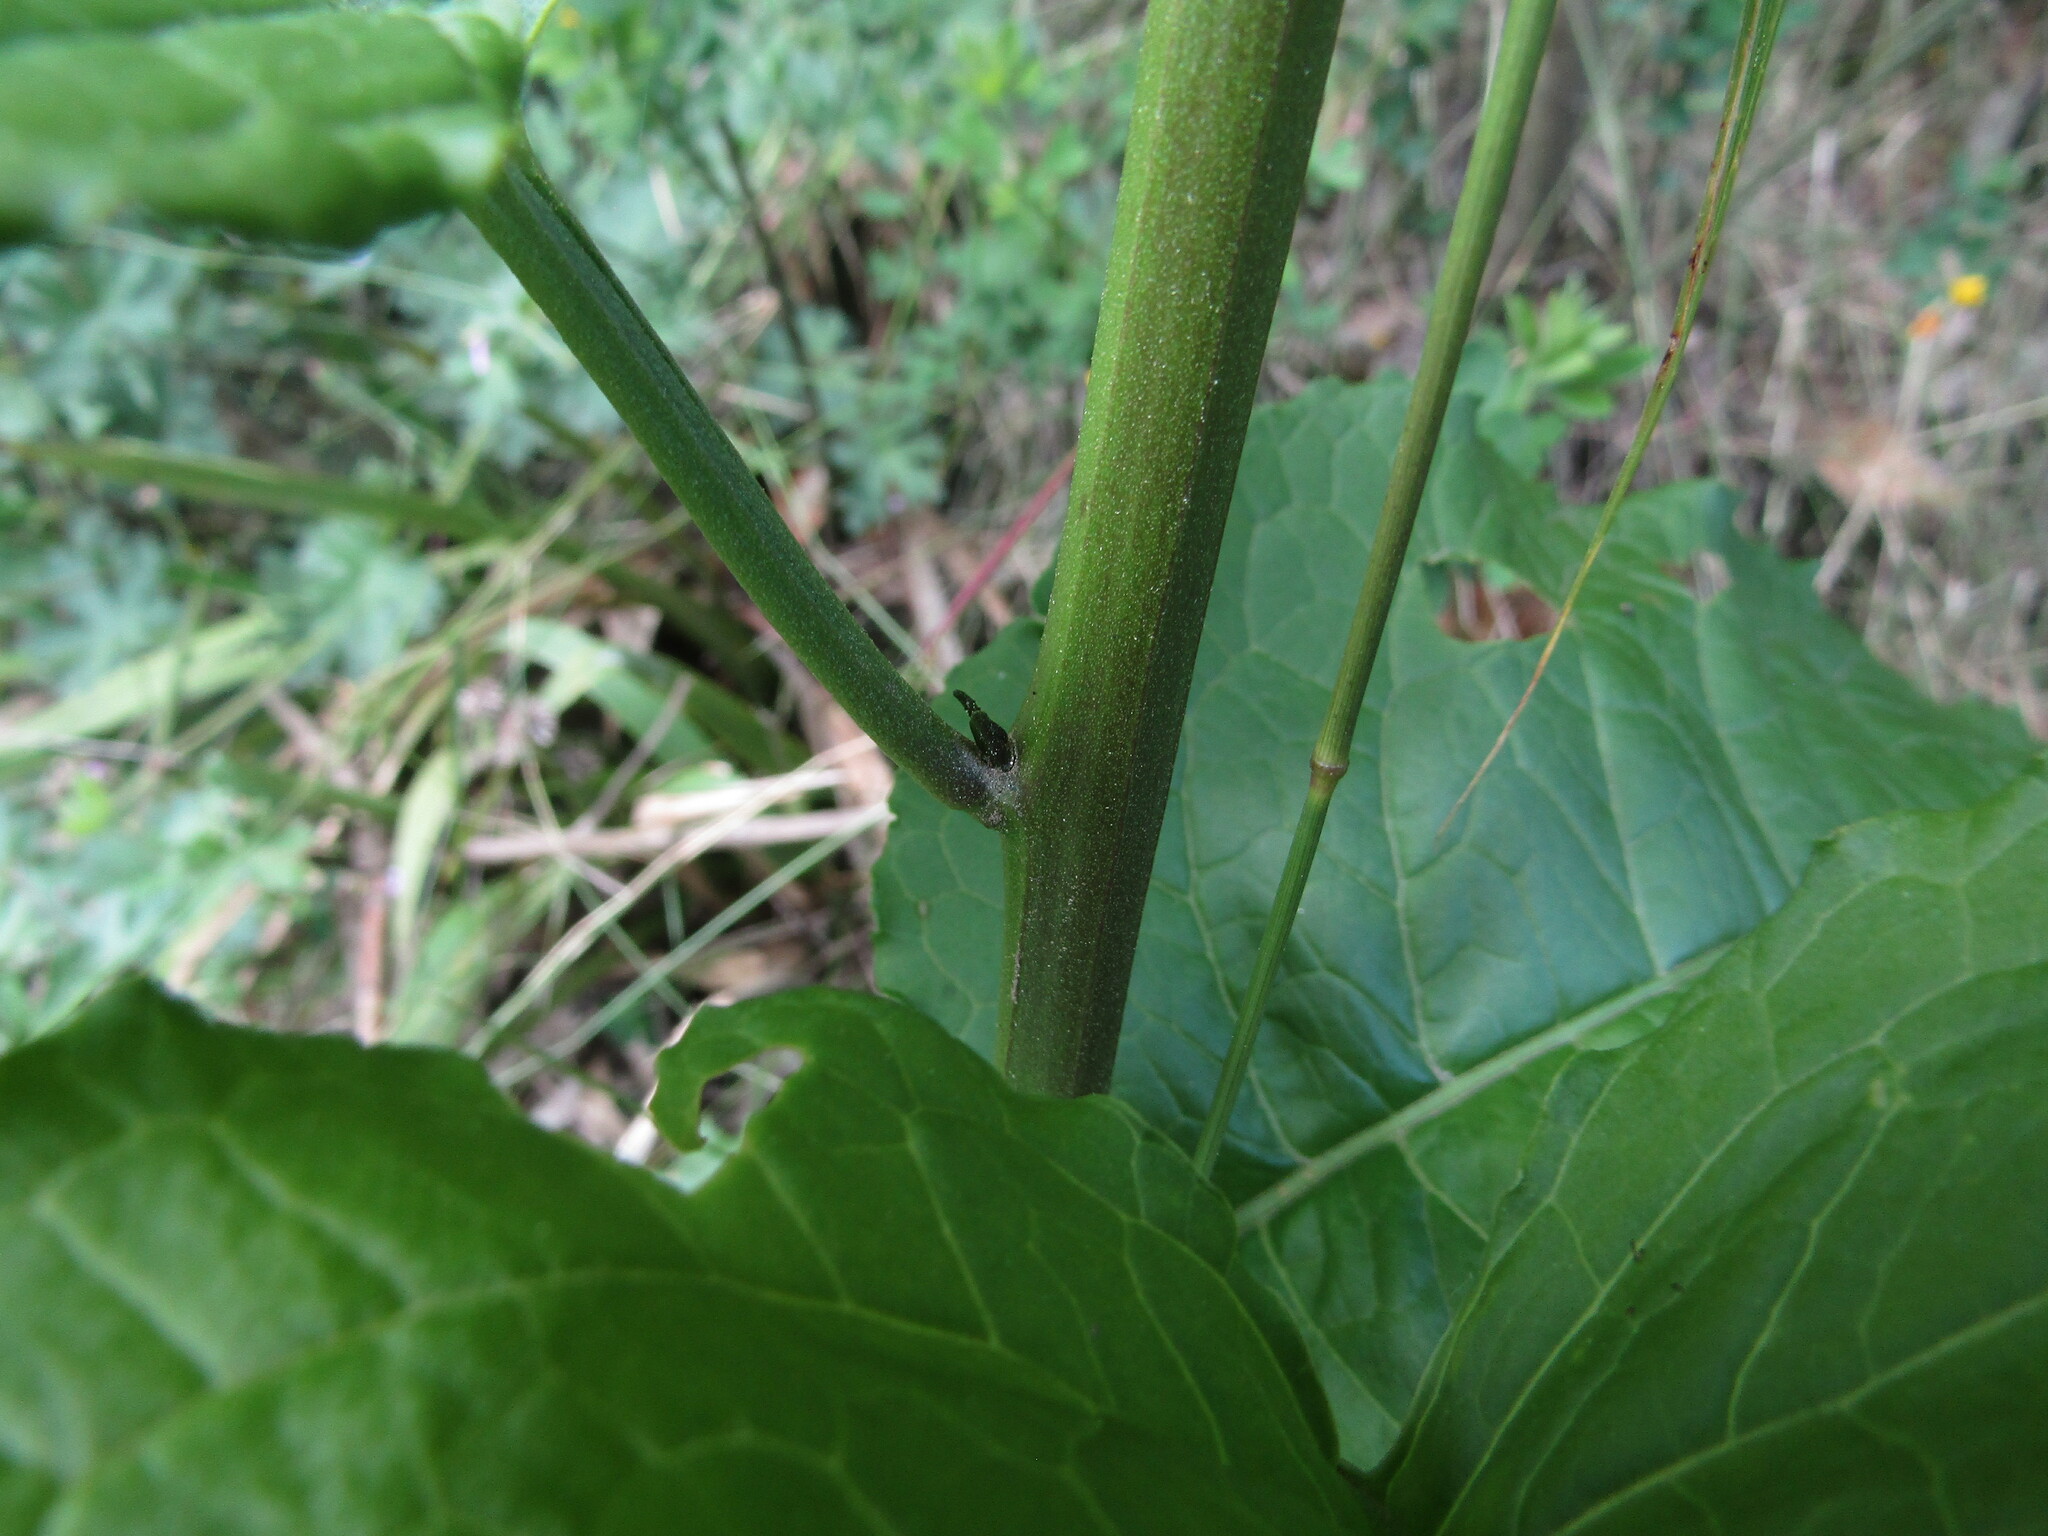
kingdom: Plantae
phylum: Tracheophyta
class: Magnoliopsida
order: Solanales
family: Solanaceae
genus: Solanum
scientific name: Solanum crispum
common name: Chilean nightshade
